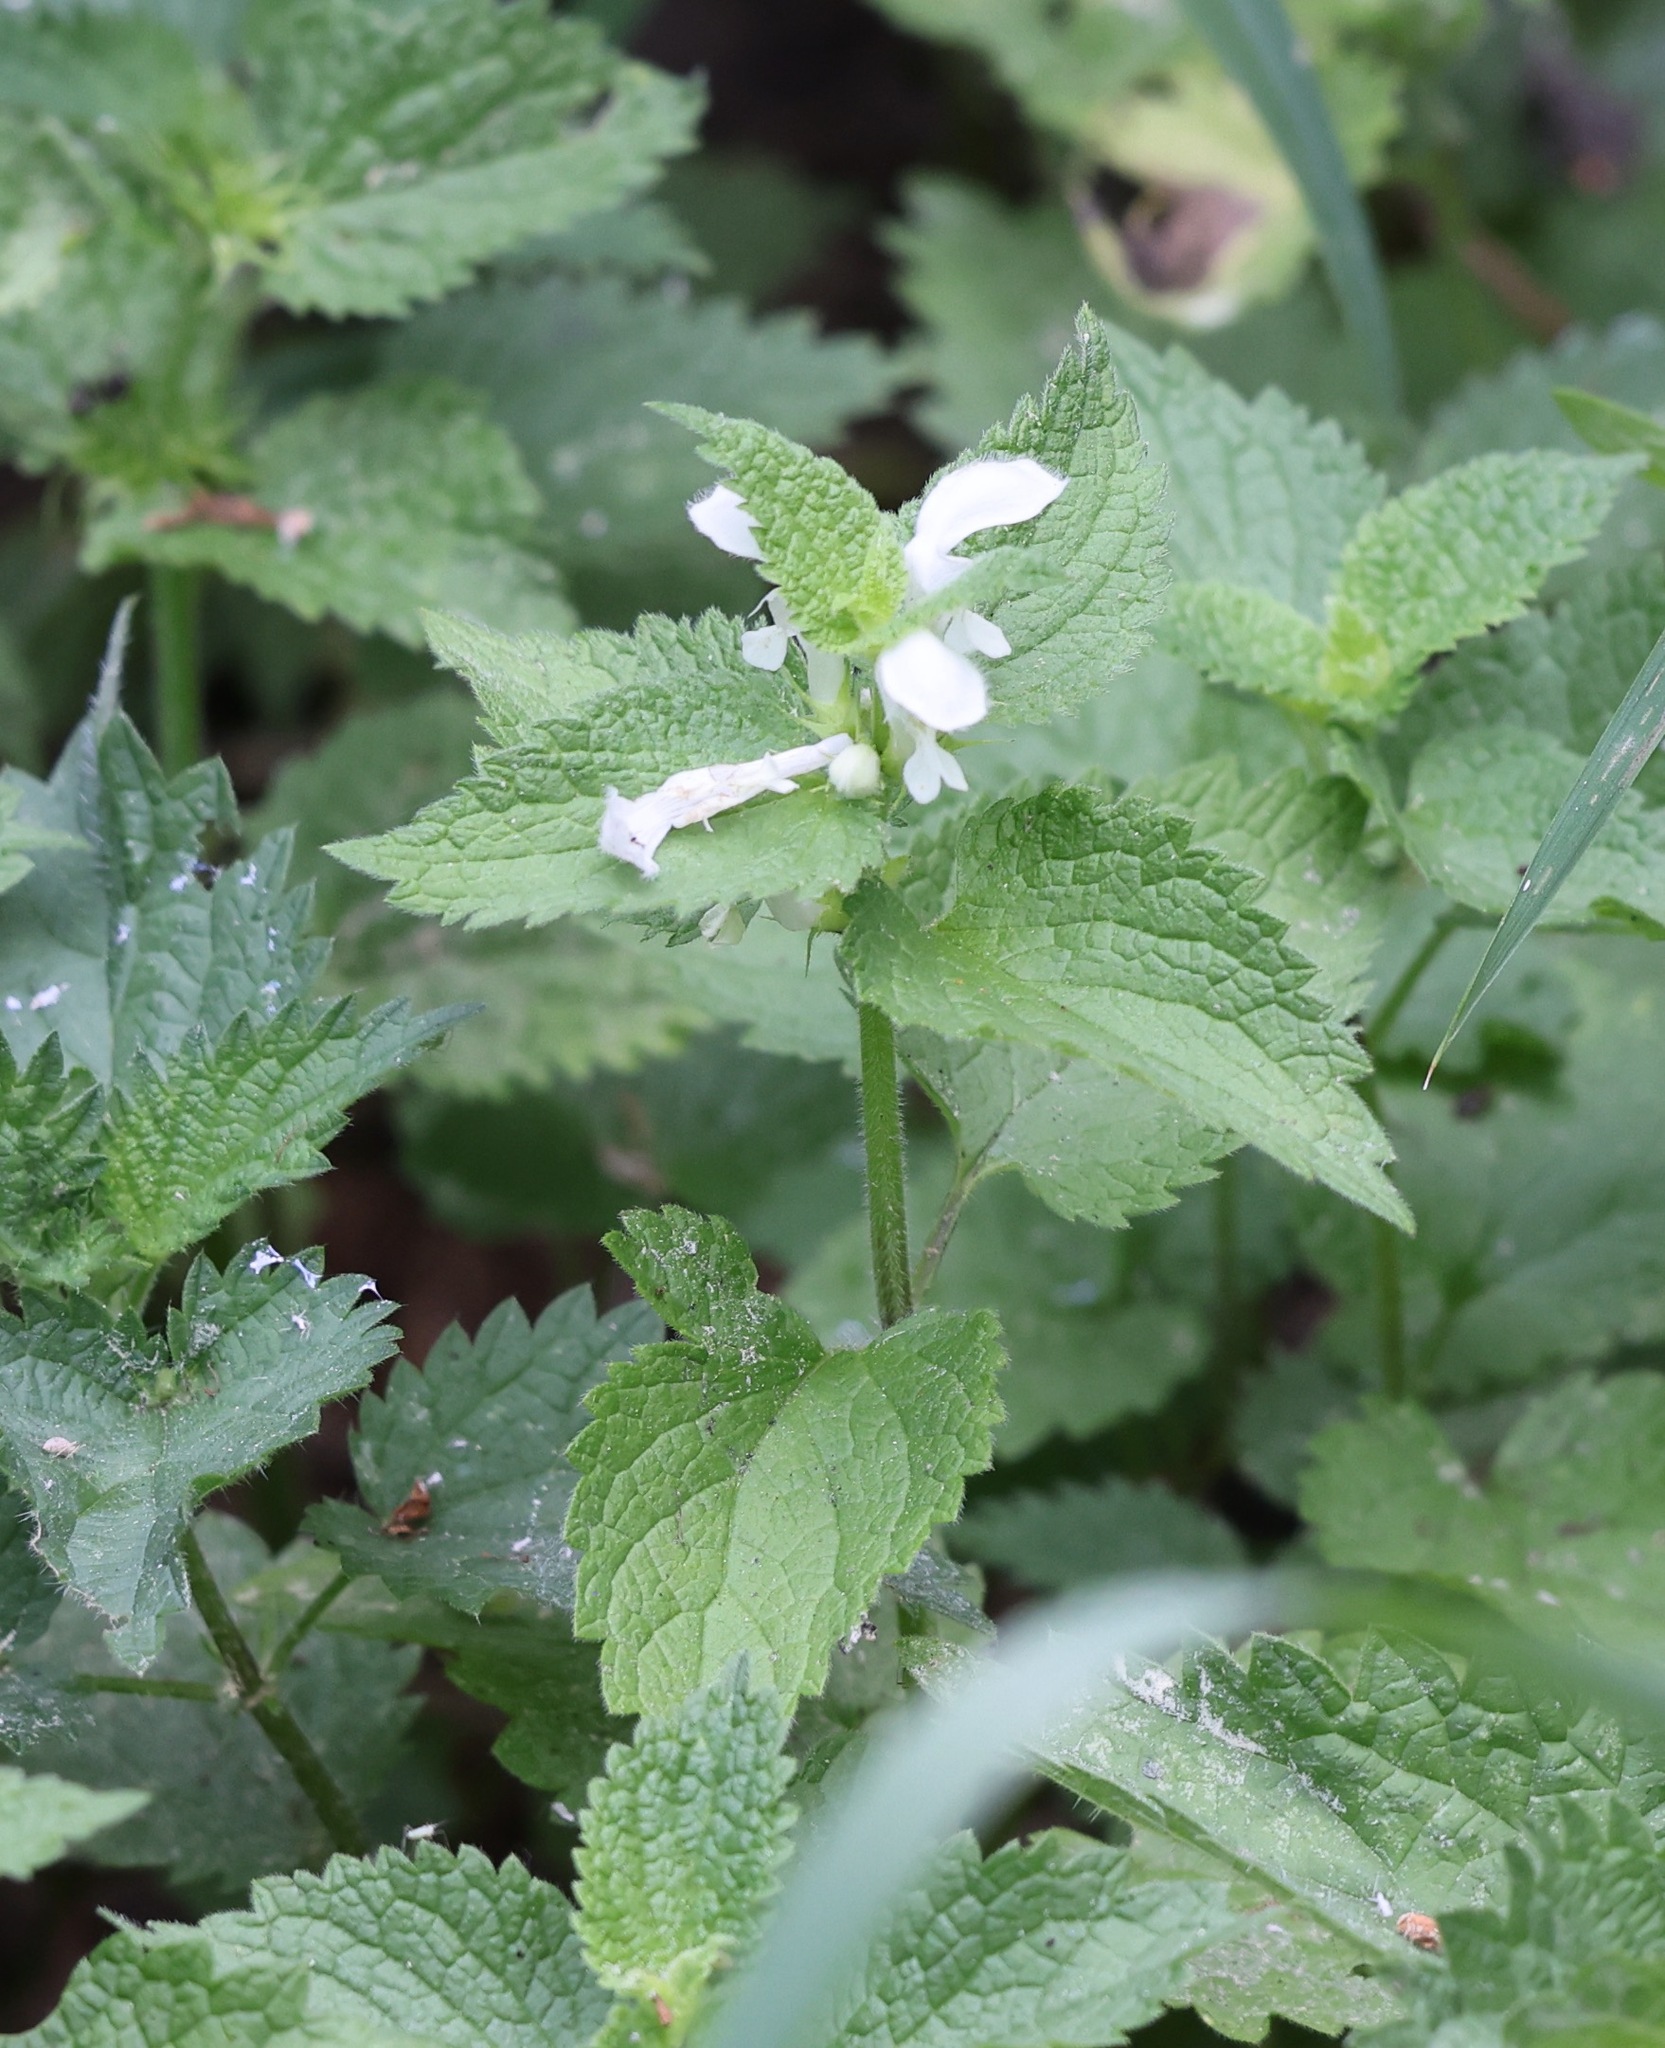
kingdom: Plantae
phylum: Tracheophyta
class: Magnoliopsida
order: Lamiales
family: Lamiaceae
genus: Lamium
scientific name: Lamium album
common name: White dead-nettle
